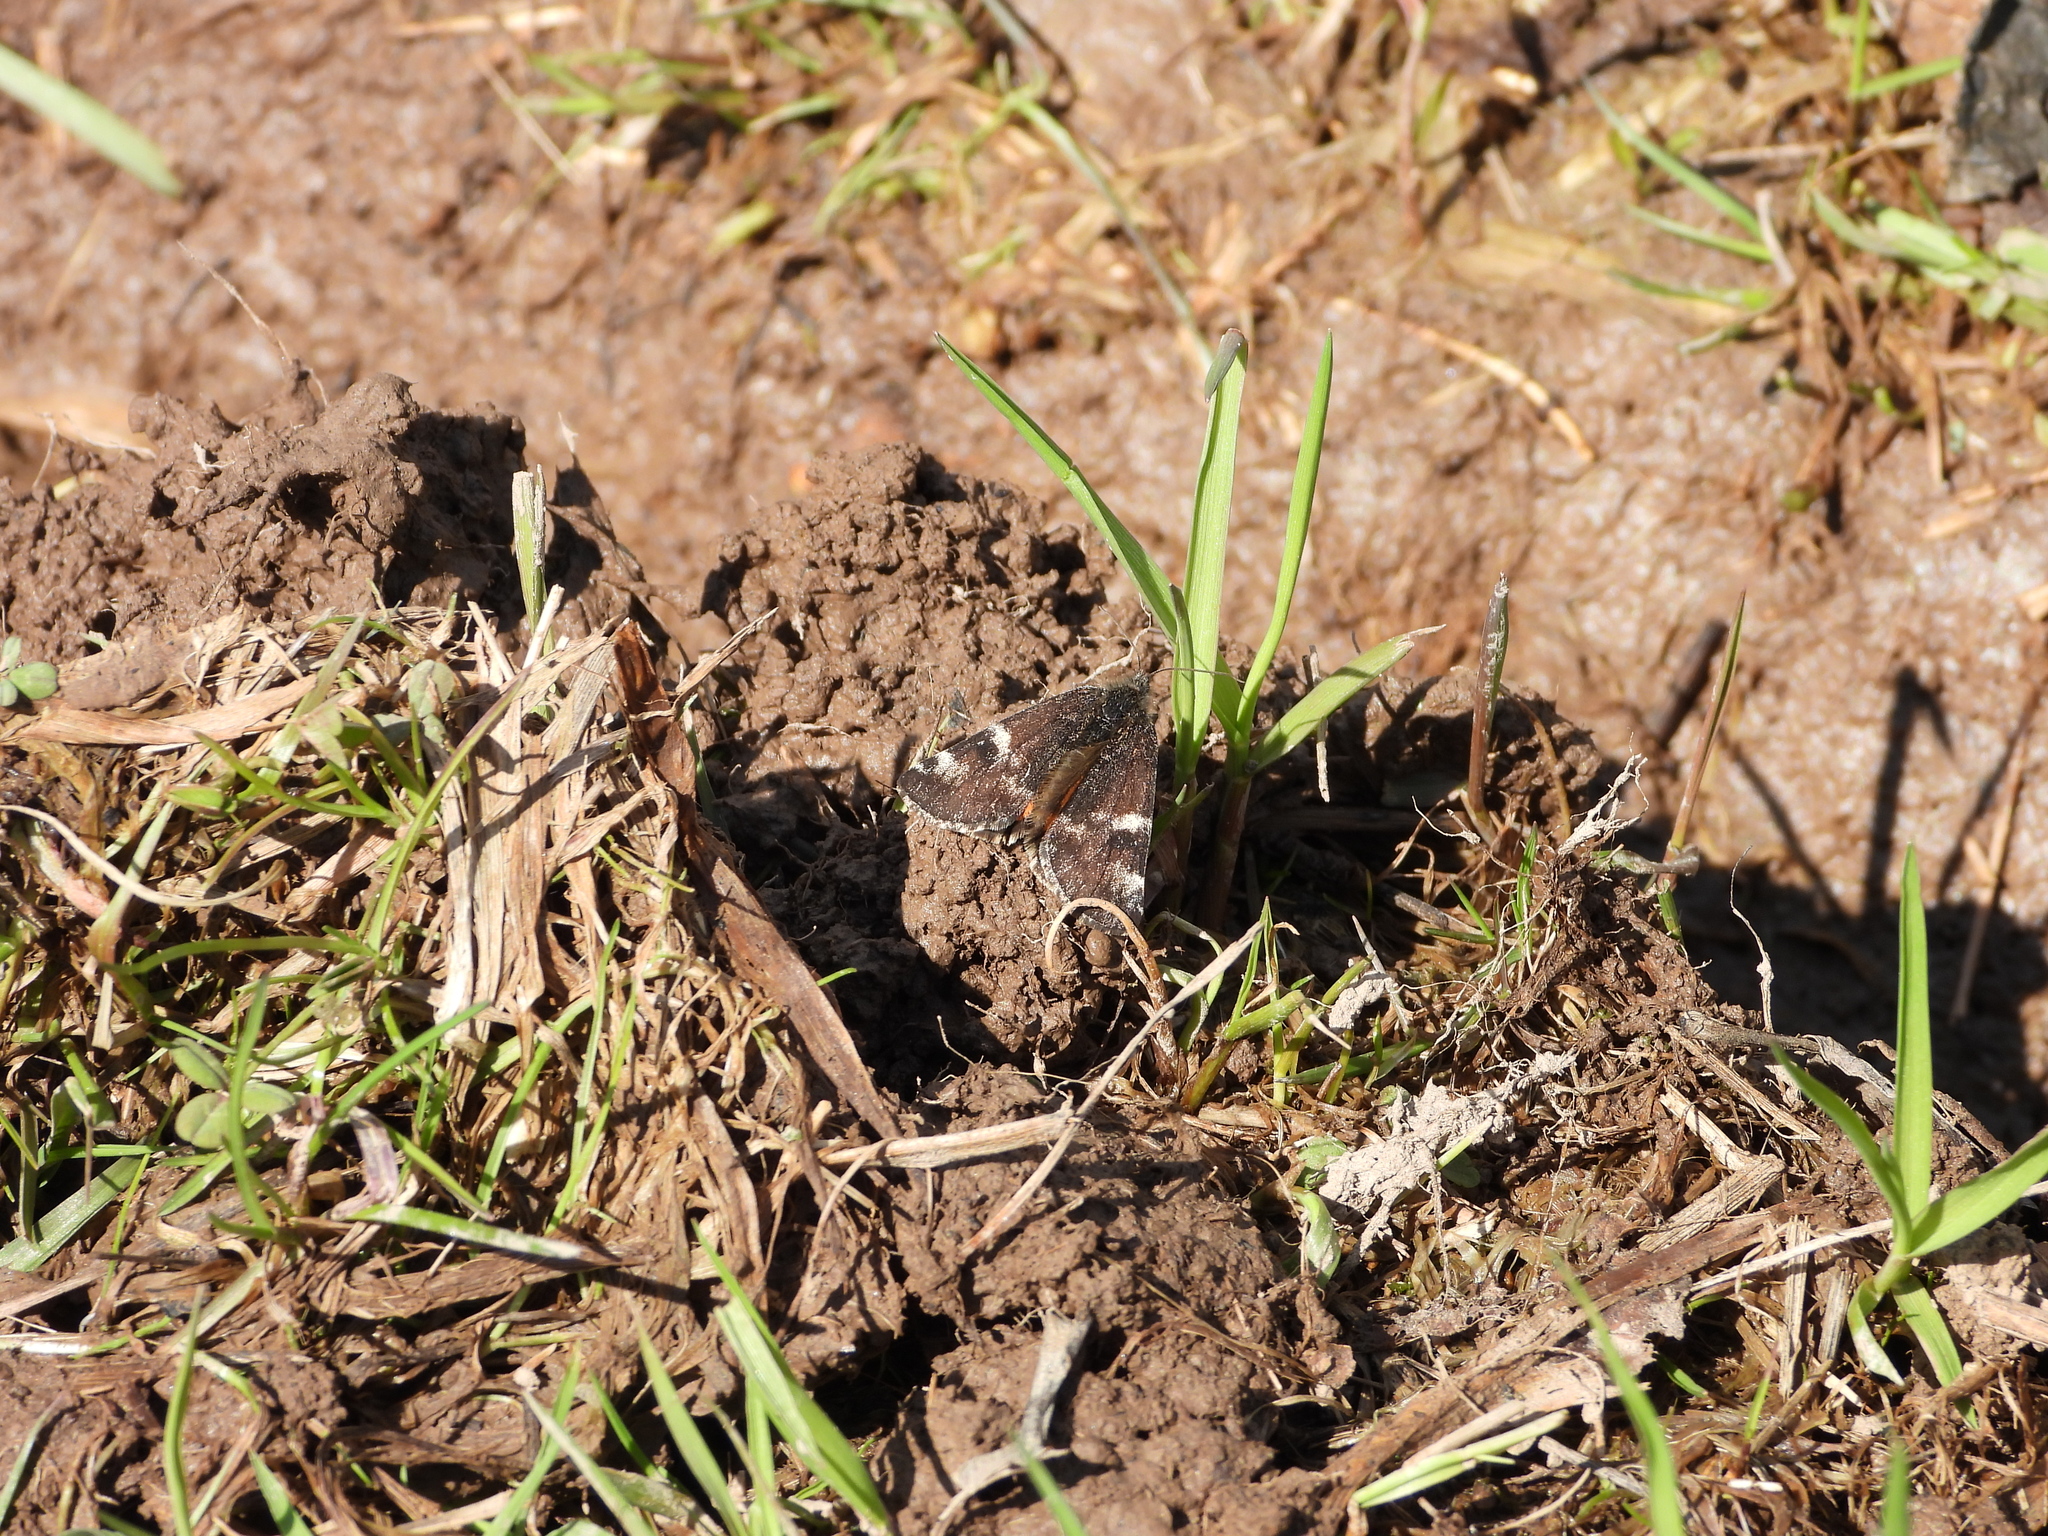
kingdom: Animalia
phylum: Arthropoda
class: Insecta
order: Lepidoptera
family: Geometridae
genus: Archiearis
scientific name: Archiearis parthenias
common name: Orange underwing
